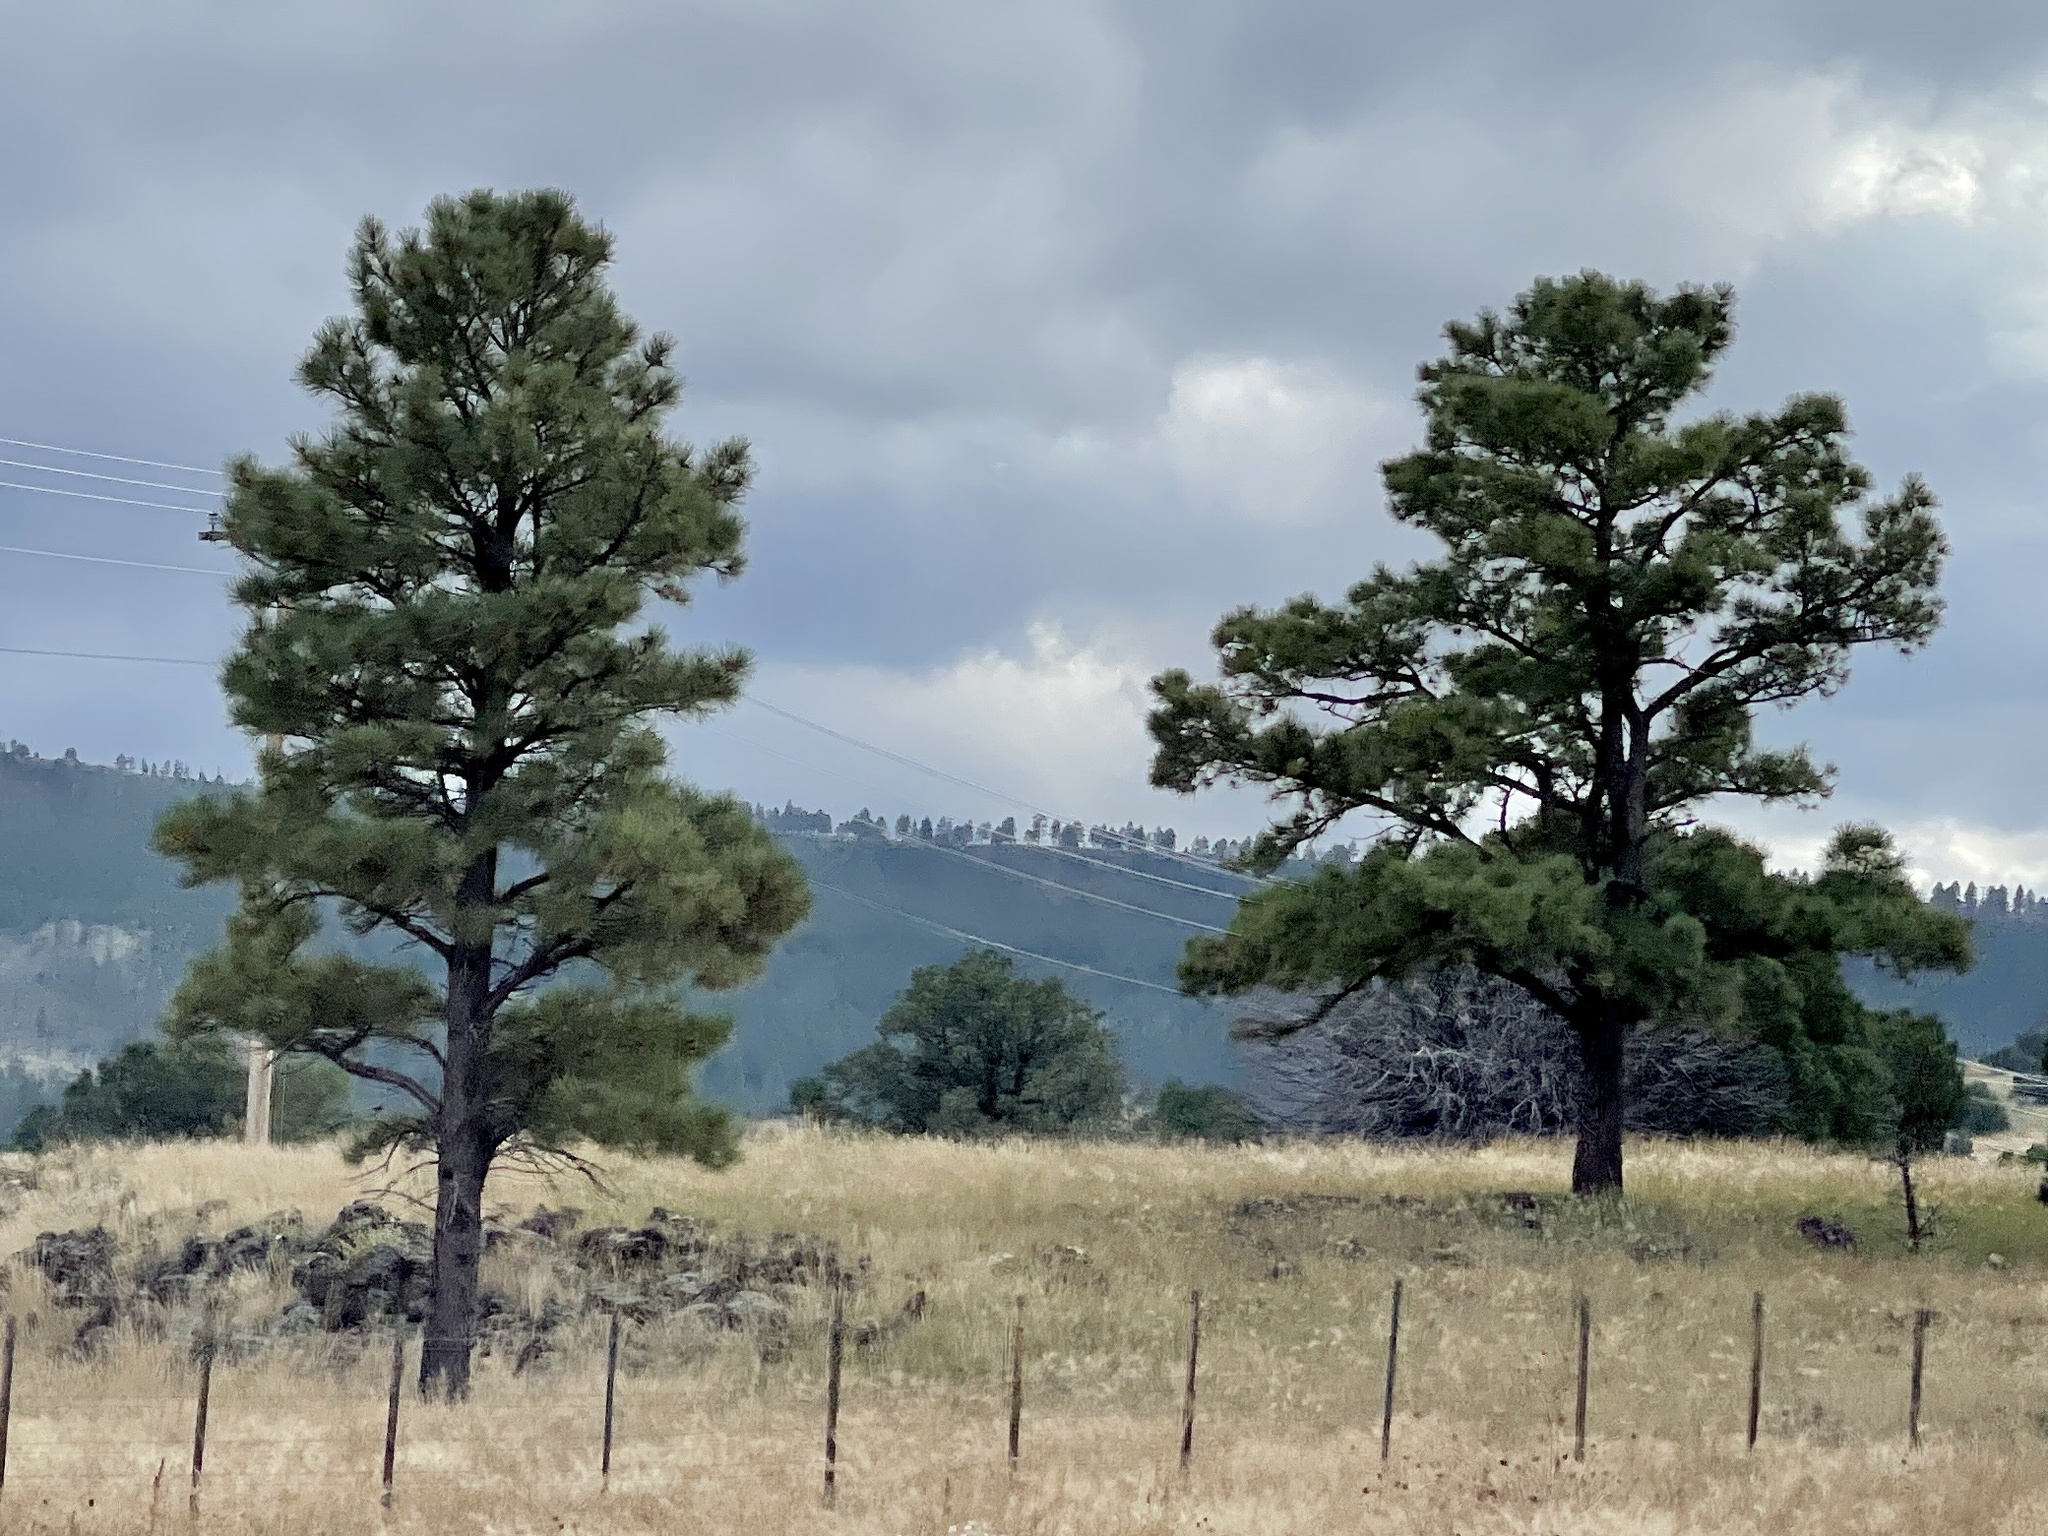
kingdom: Plantae
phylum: Tracheophyta
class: Pinopsida
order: Pinales
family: Pinaceae
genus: Pinus
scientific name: Pinus ponderosa
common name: Western yellow-pine
